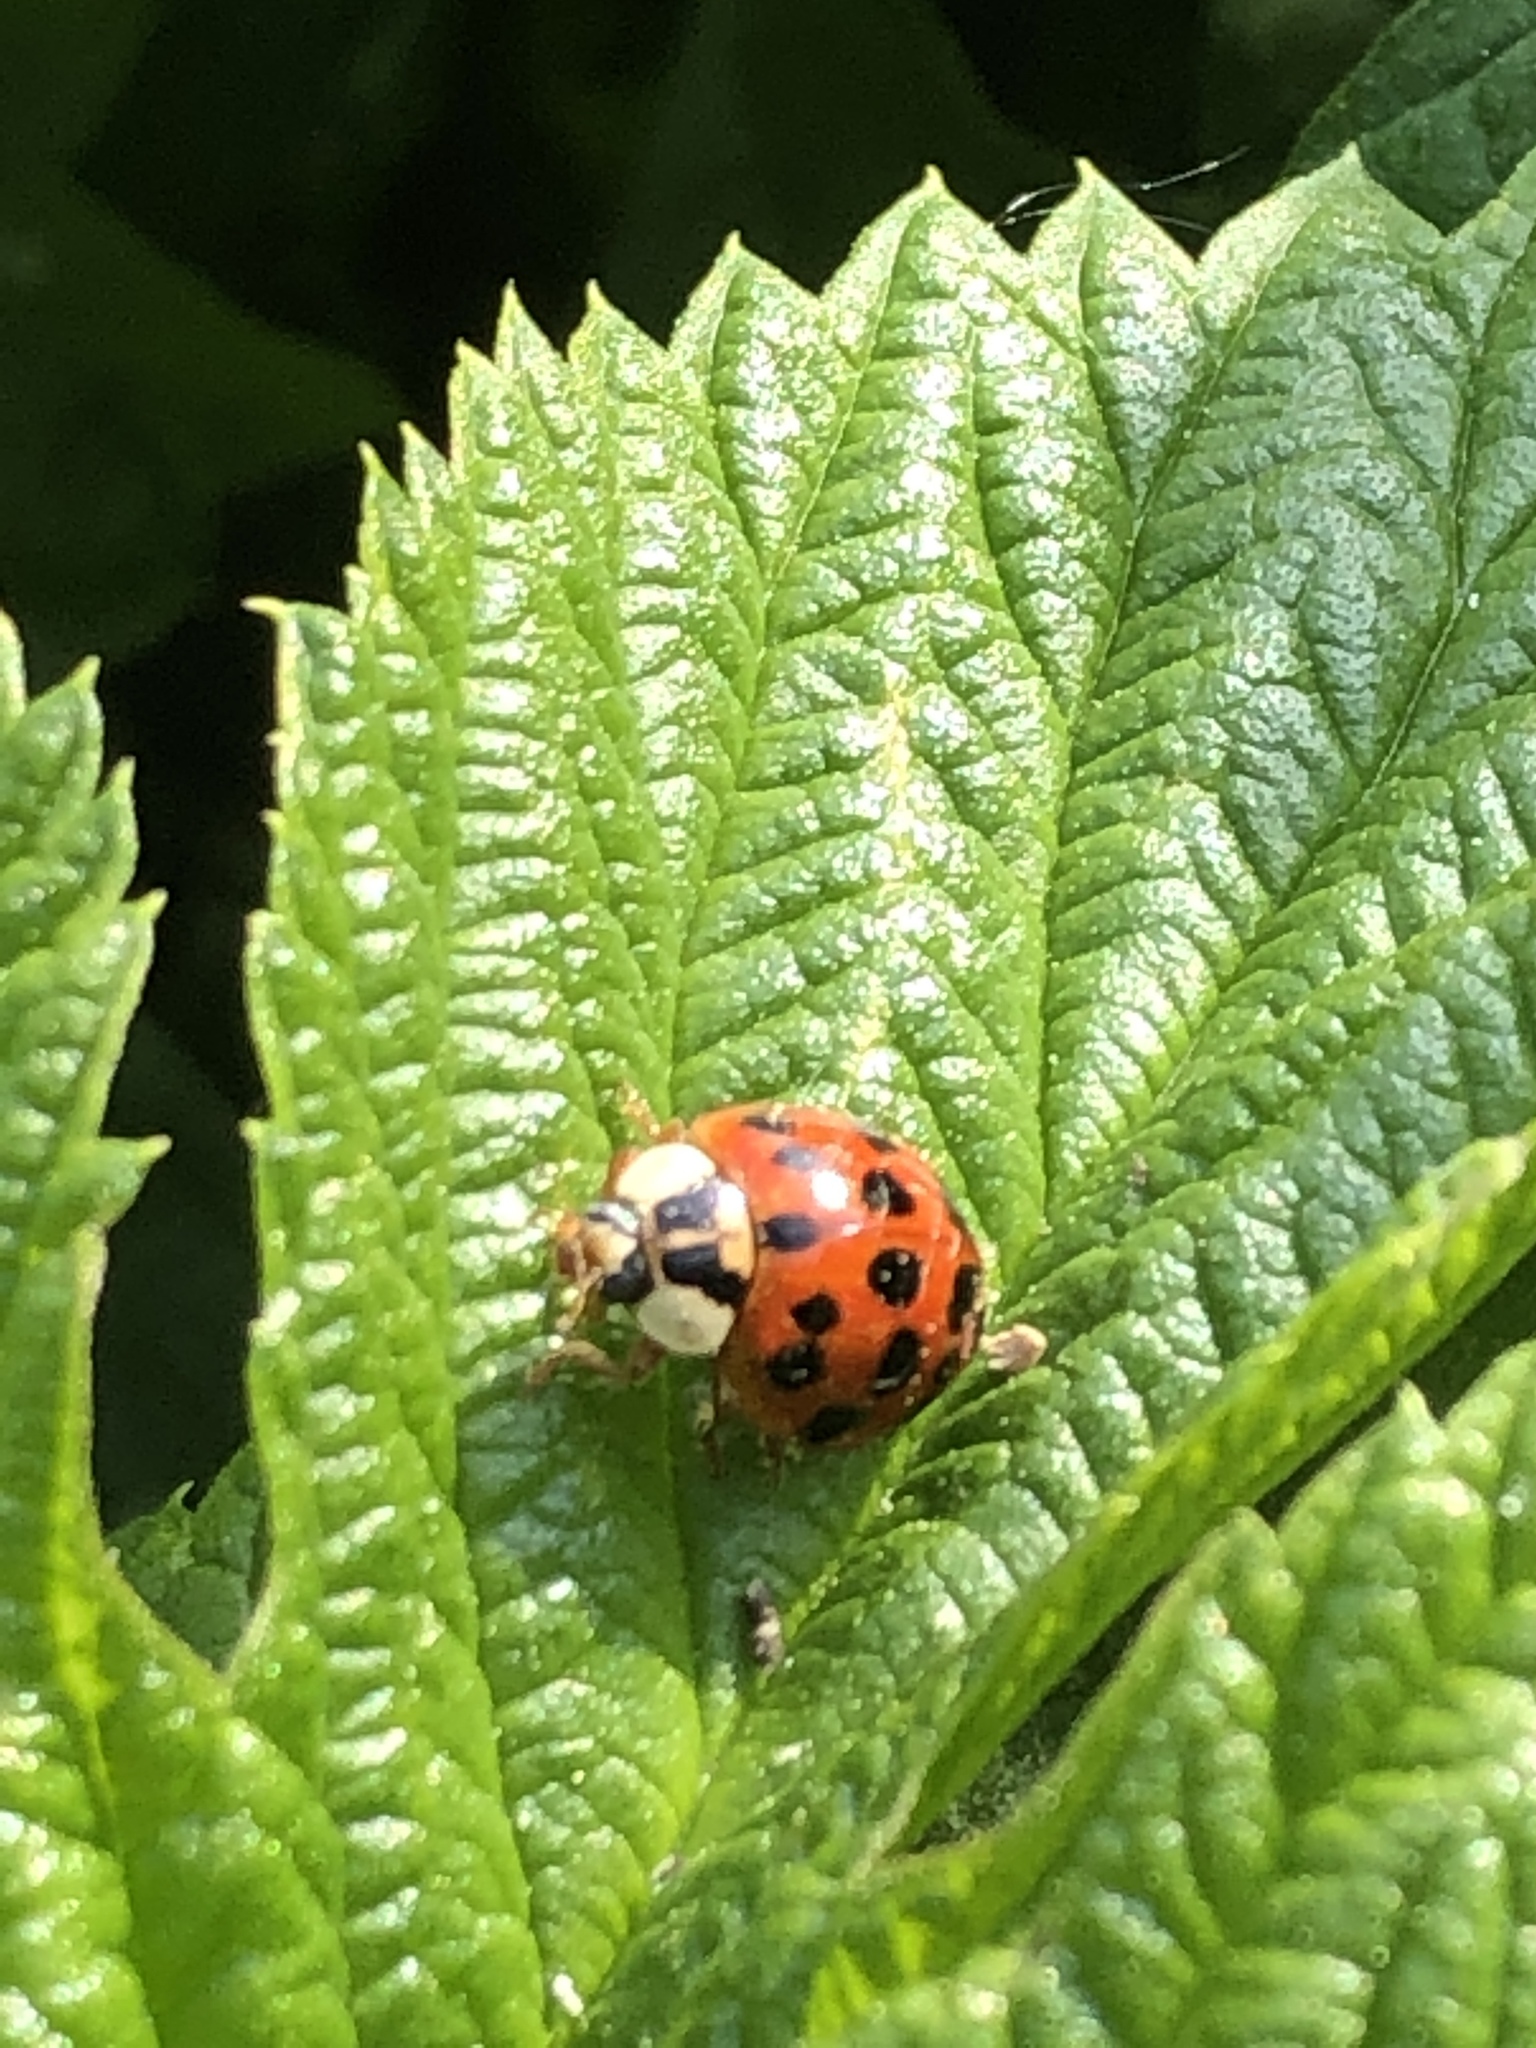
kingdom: Animalia
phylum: Arthropoda
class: Insecta
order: Coleoptera
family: Coccinellidae
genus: Harmonia
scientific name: Harmonia axyridis
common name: Harlequin ladybird
